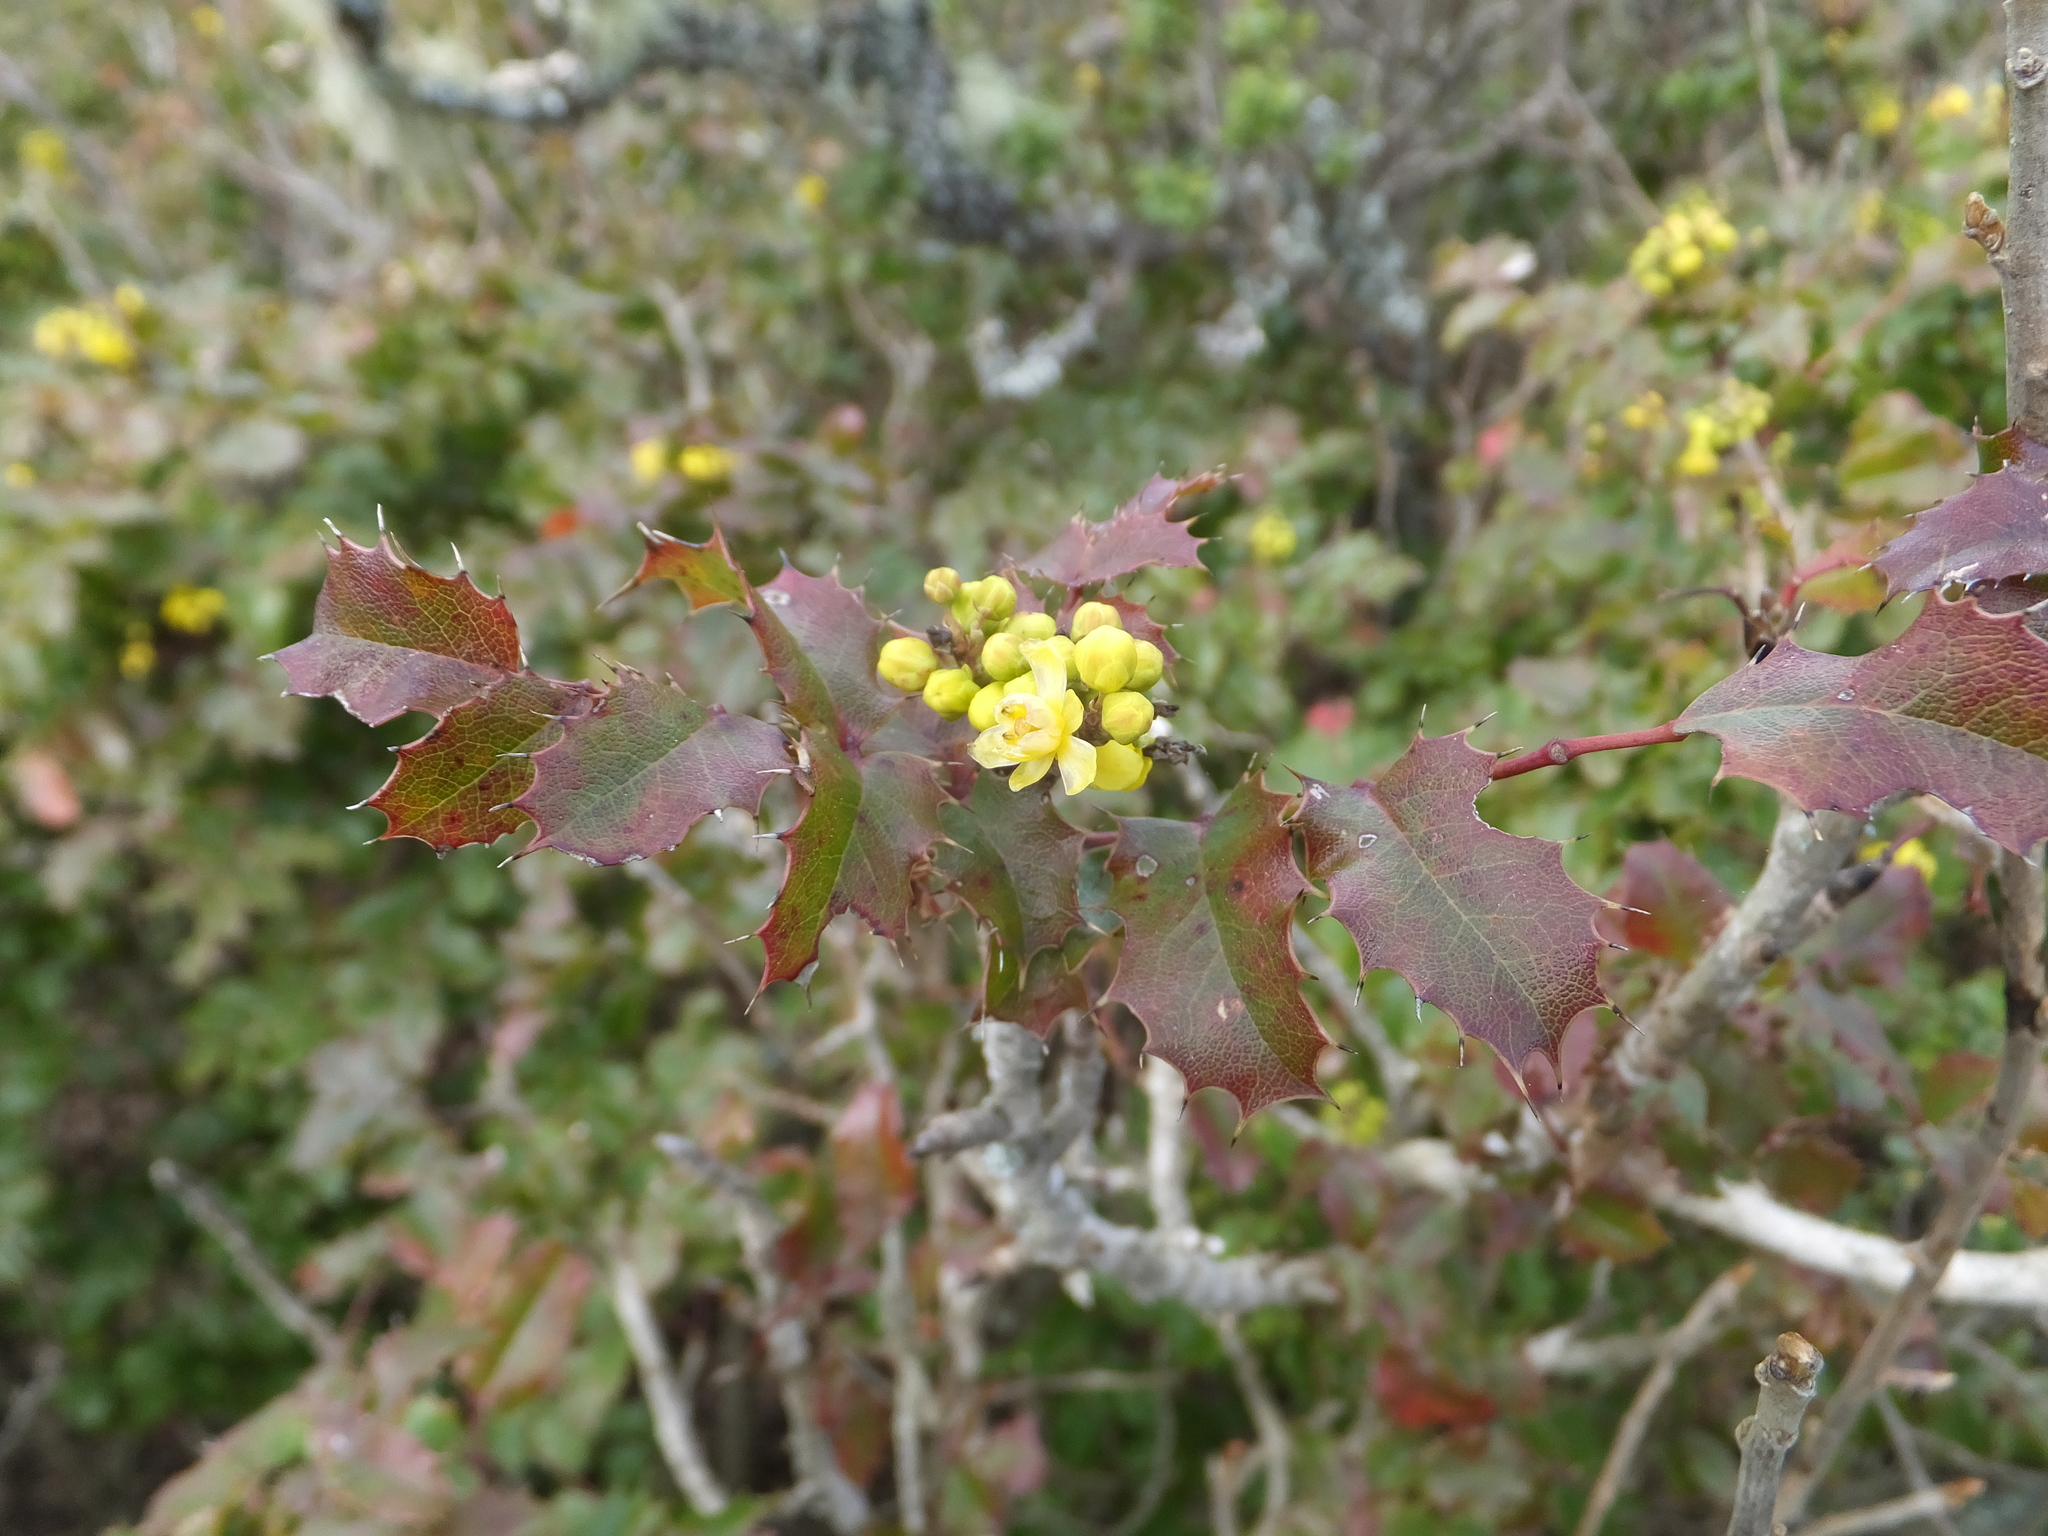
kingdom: Plantae
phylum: Tracheophyta
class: Magnoliopsida
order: Ranunculales
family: Berberidaceae
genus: Mahonia
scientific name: Mahonia
